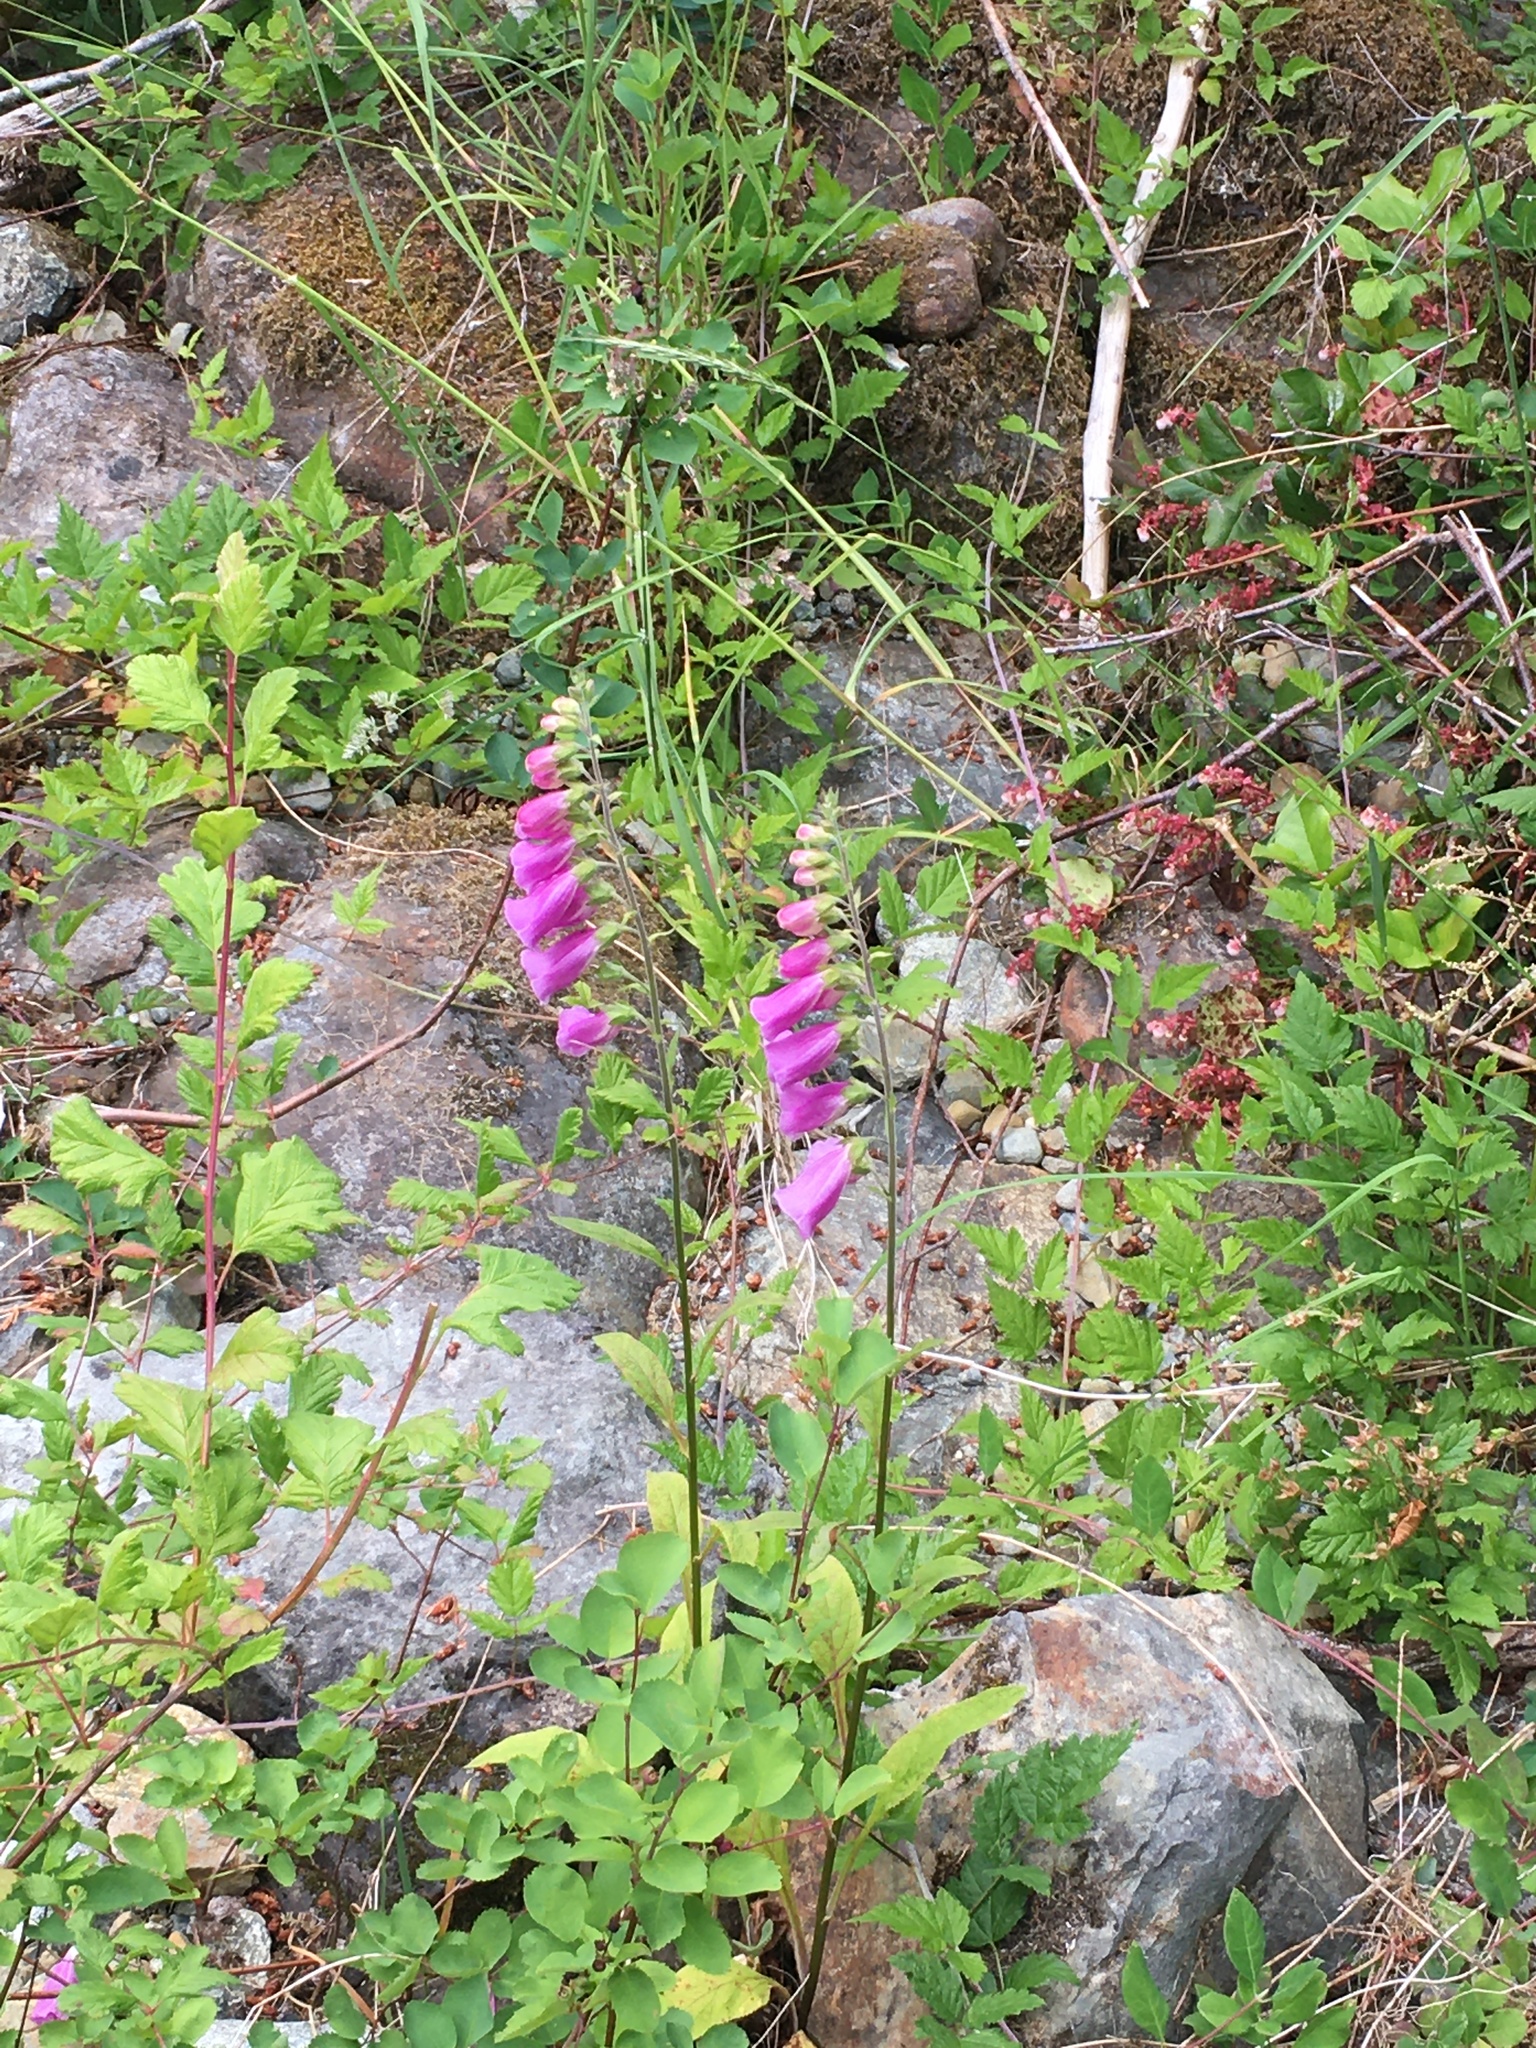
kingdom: Plantae
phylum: Tracheophyta
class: Magnoliopsida
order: Lamiales
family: Plantaginaceae
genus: Digitalis
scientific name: Digitalis purpurea
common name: Foxglove
